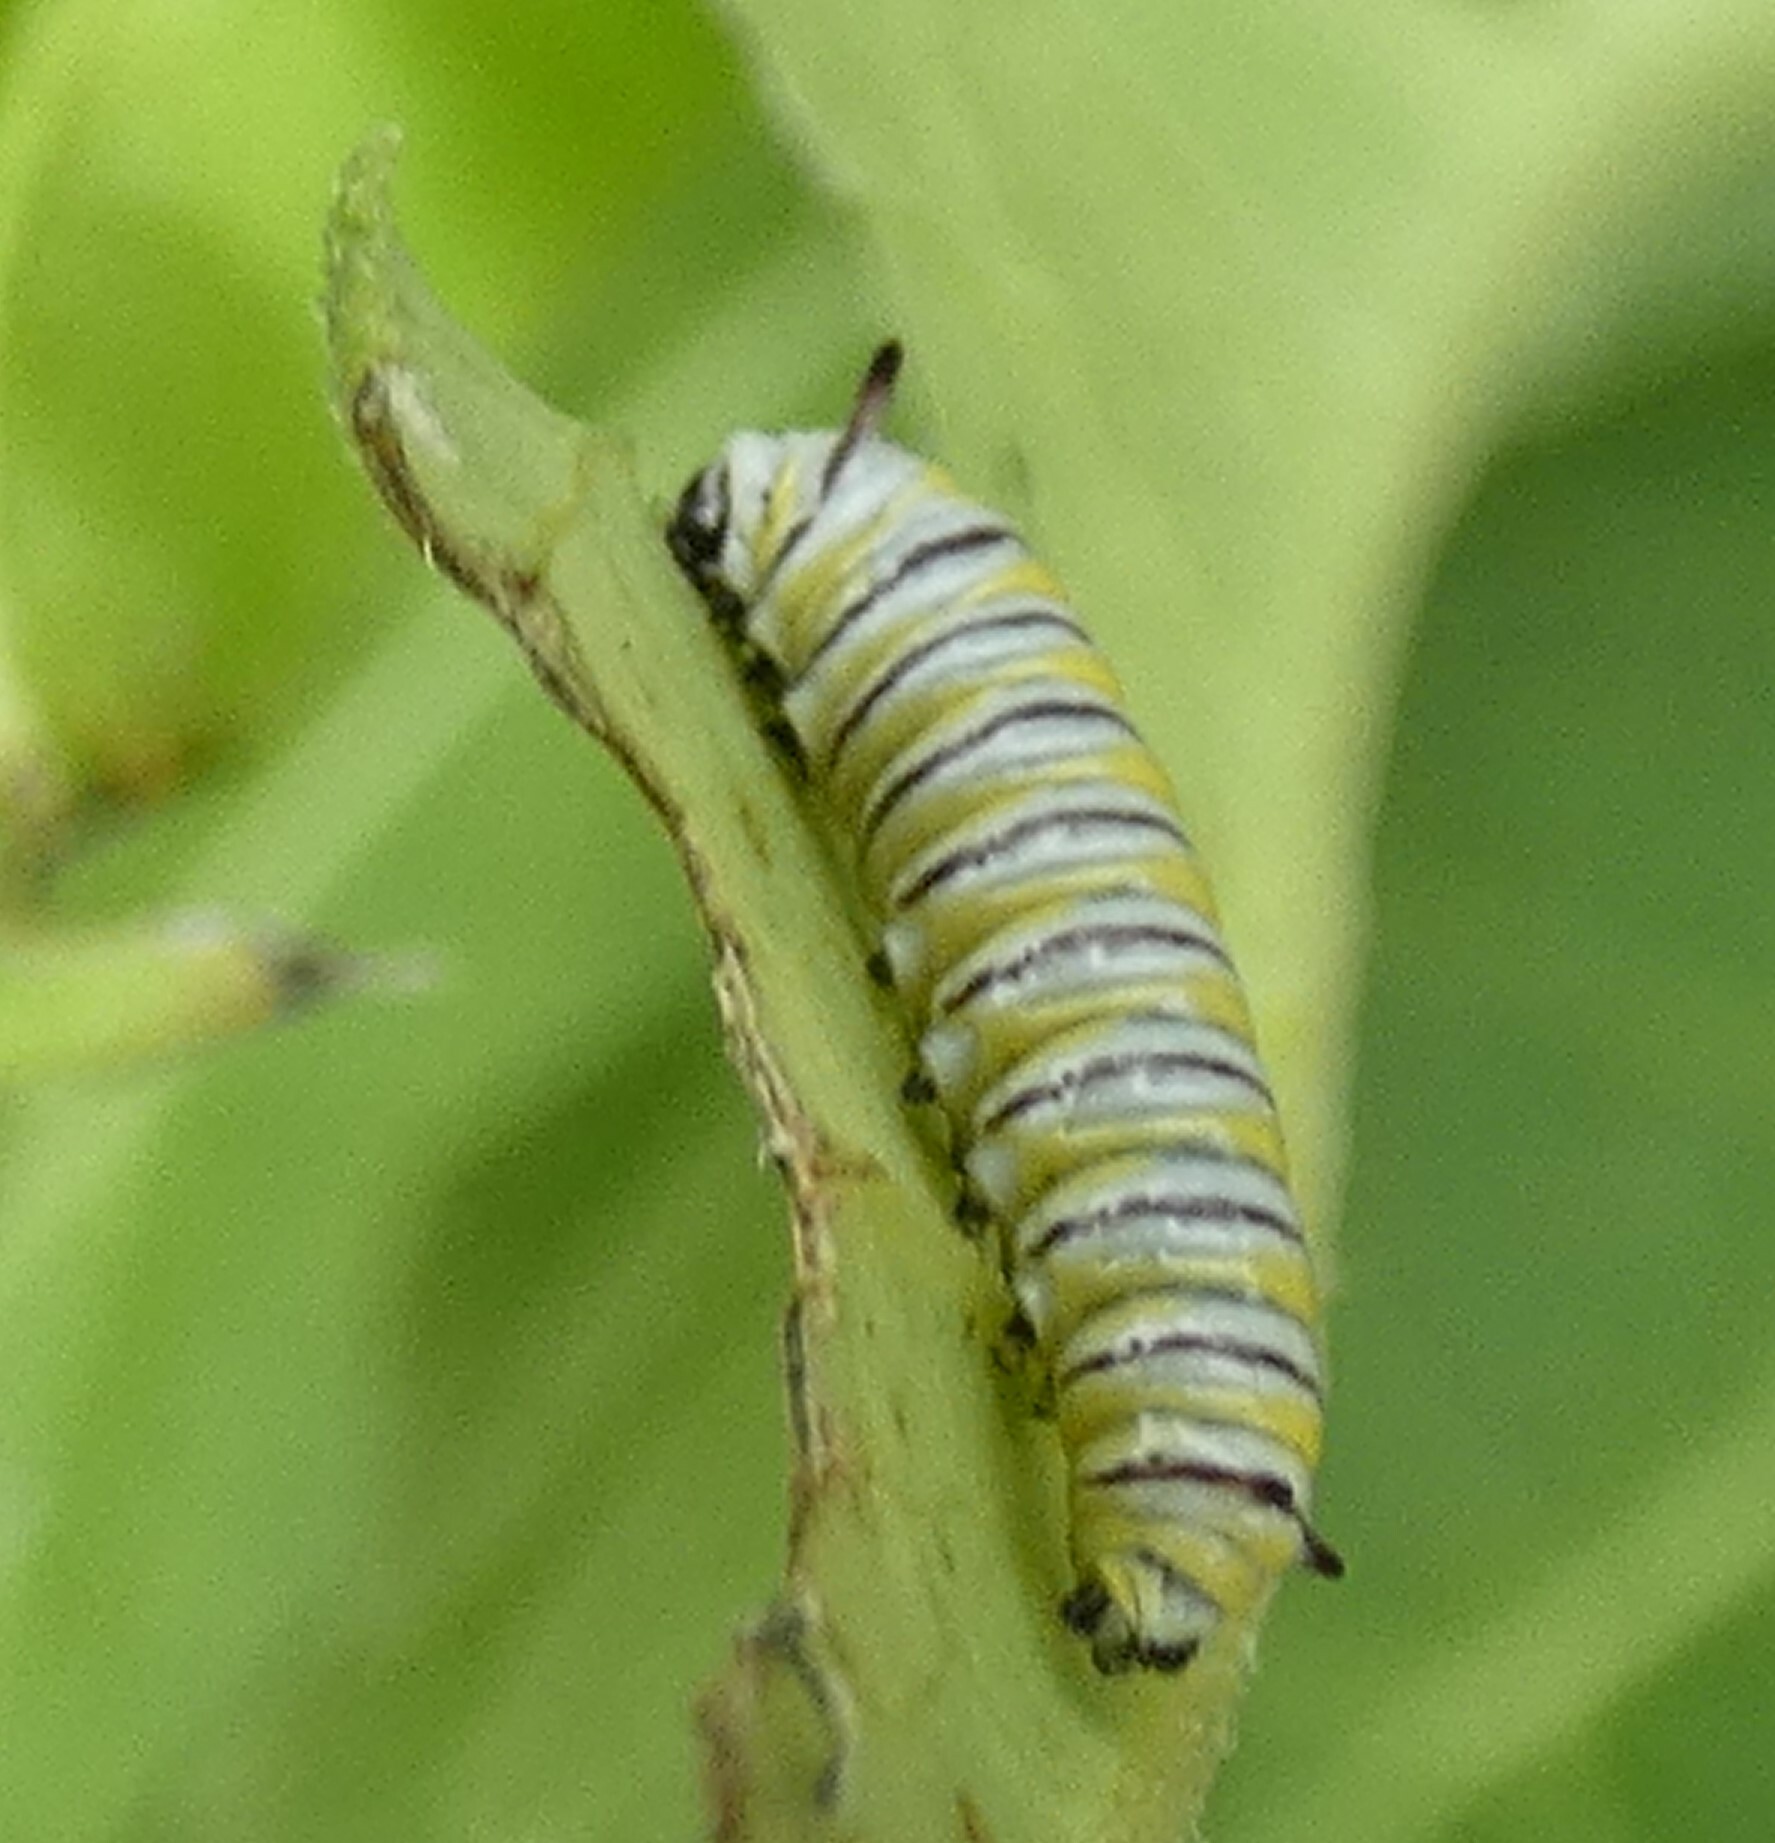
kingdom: Animalia
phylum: Arthropoda
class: Insecta
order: Lepidoptera
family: Nymphalidae
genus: Danaus
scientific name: Danaus plexippus
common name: Monarch
